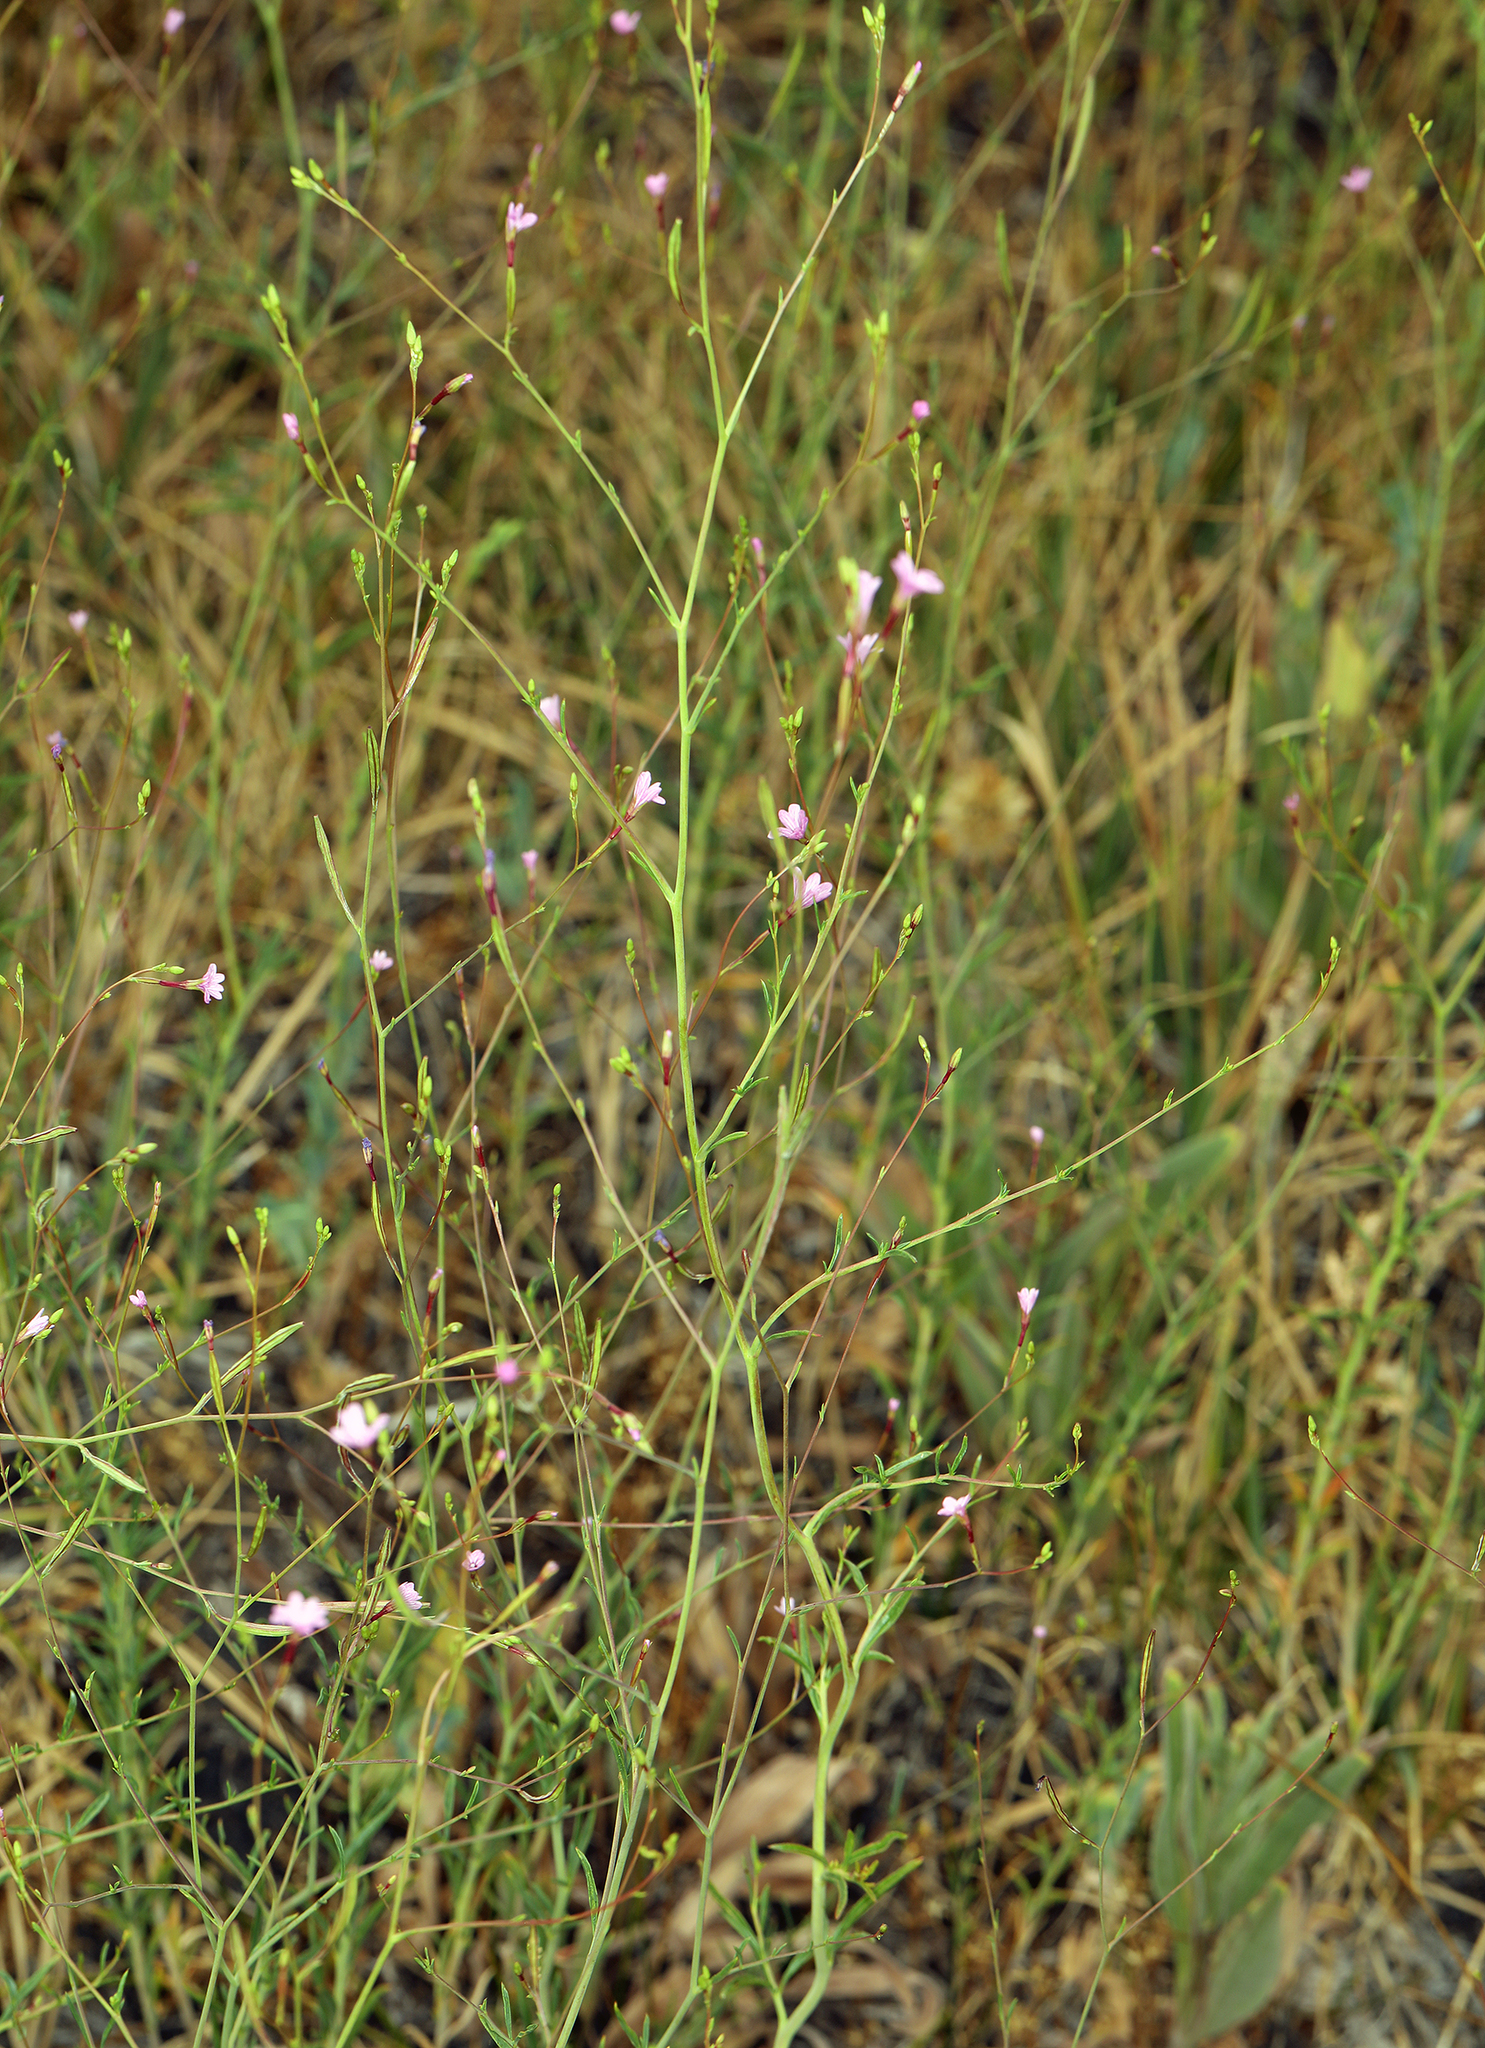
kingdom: Plantae
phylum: Tracheophyta
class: Magnoliopsida
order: Myrtales
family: Onagraceae
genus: Epilobium
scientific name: Epilobium brachycarpum
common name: Annual willowherb
